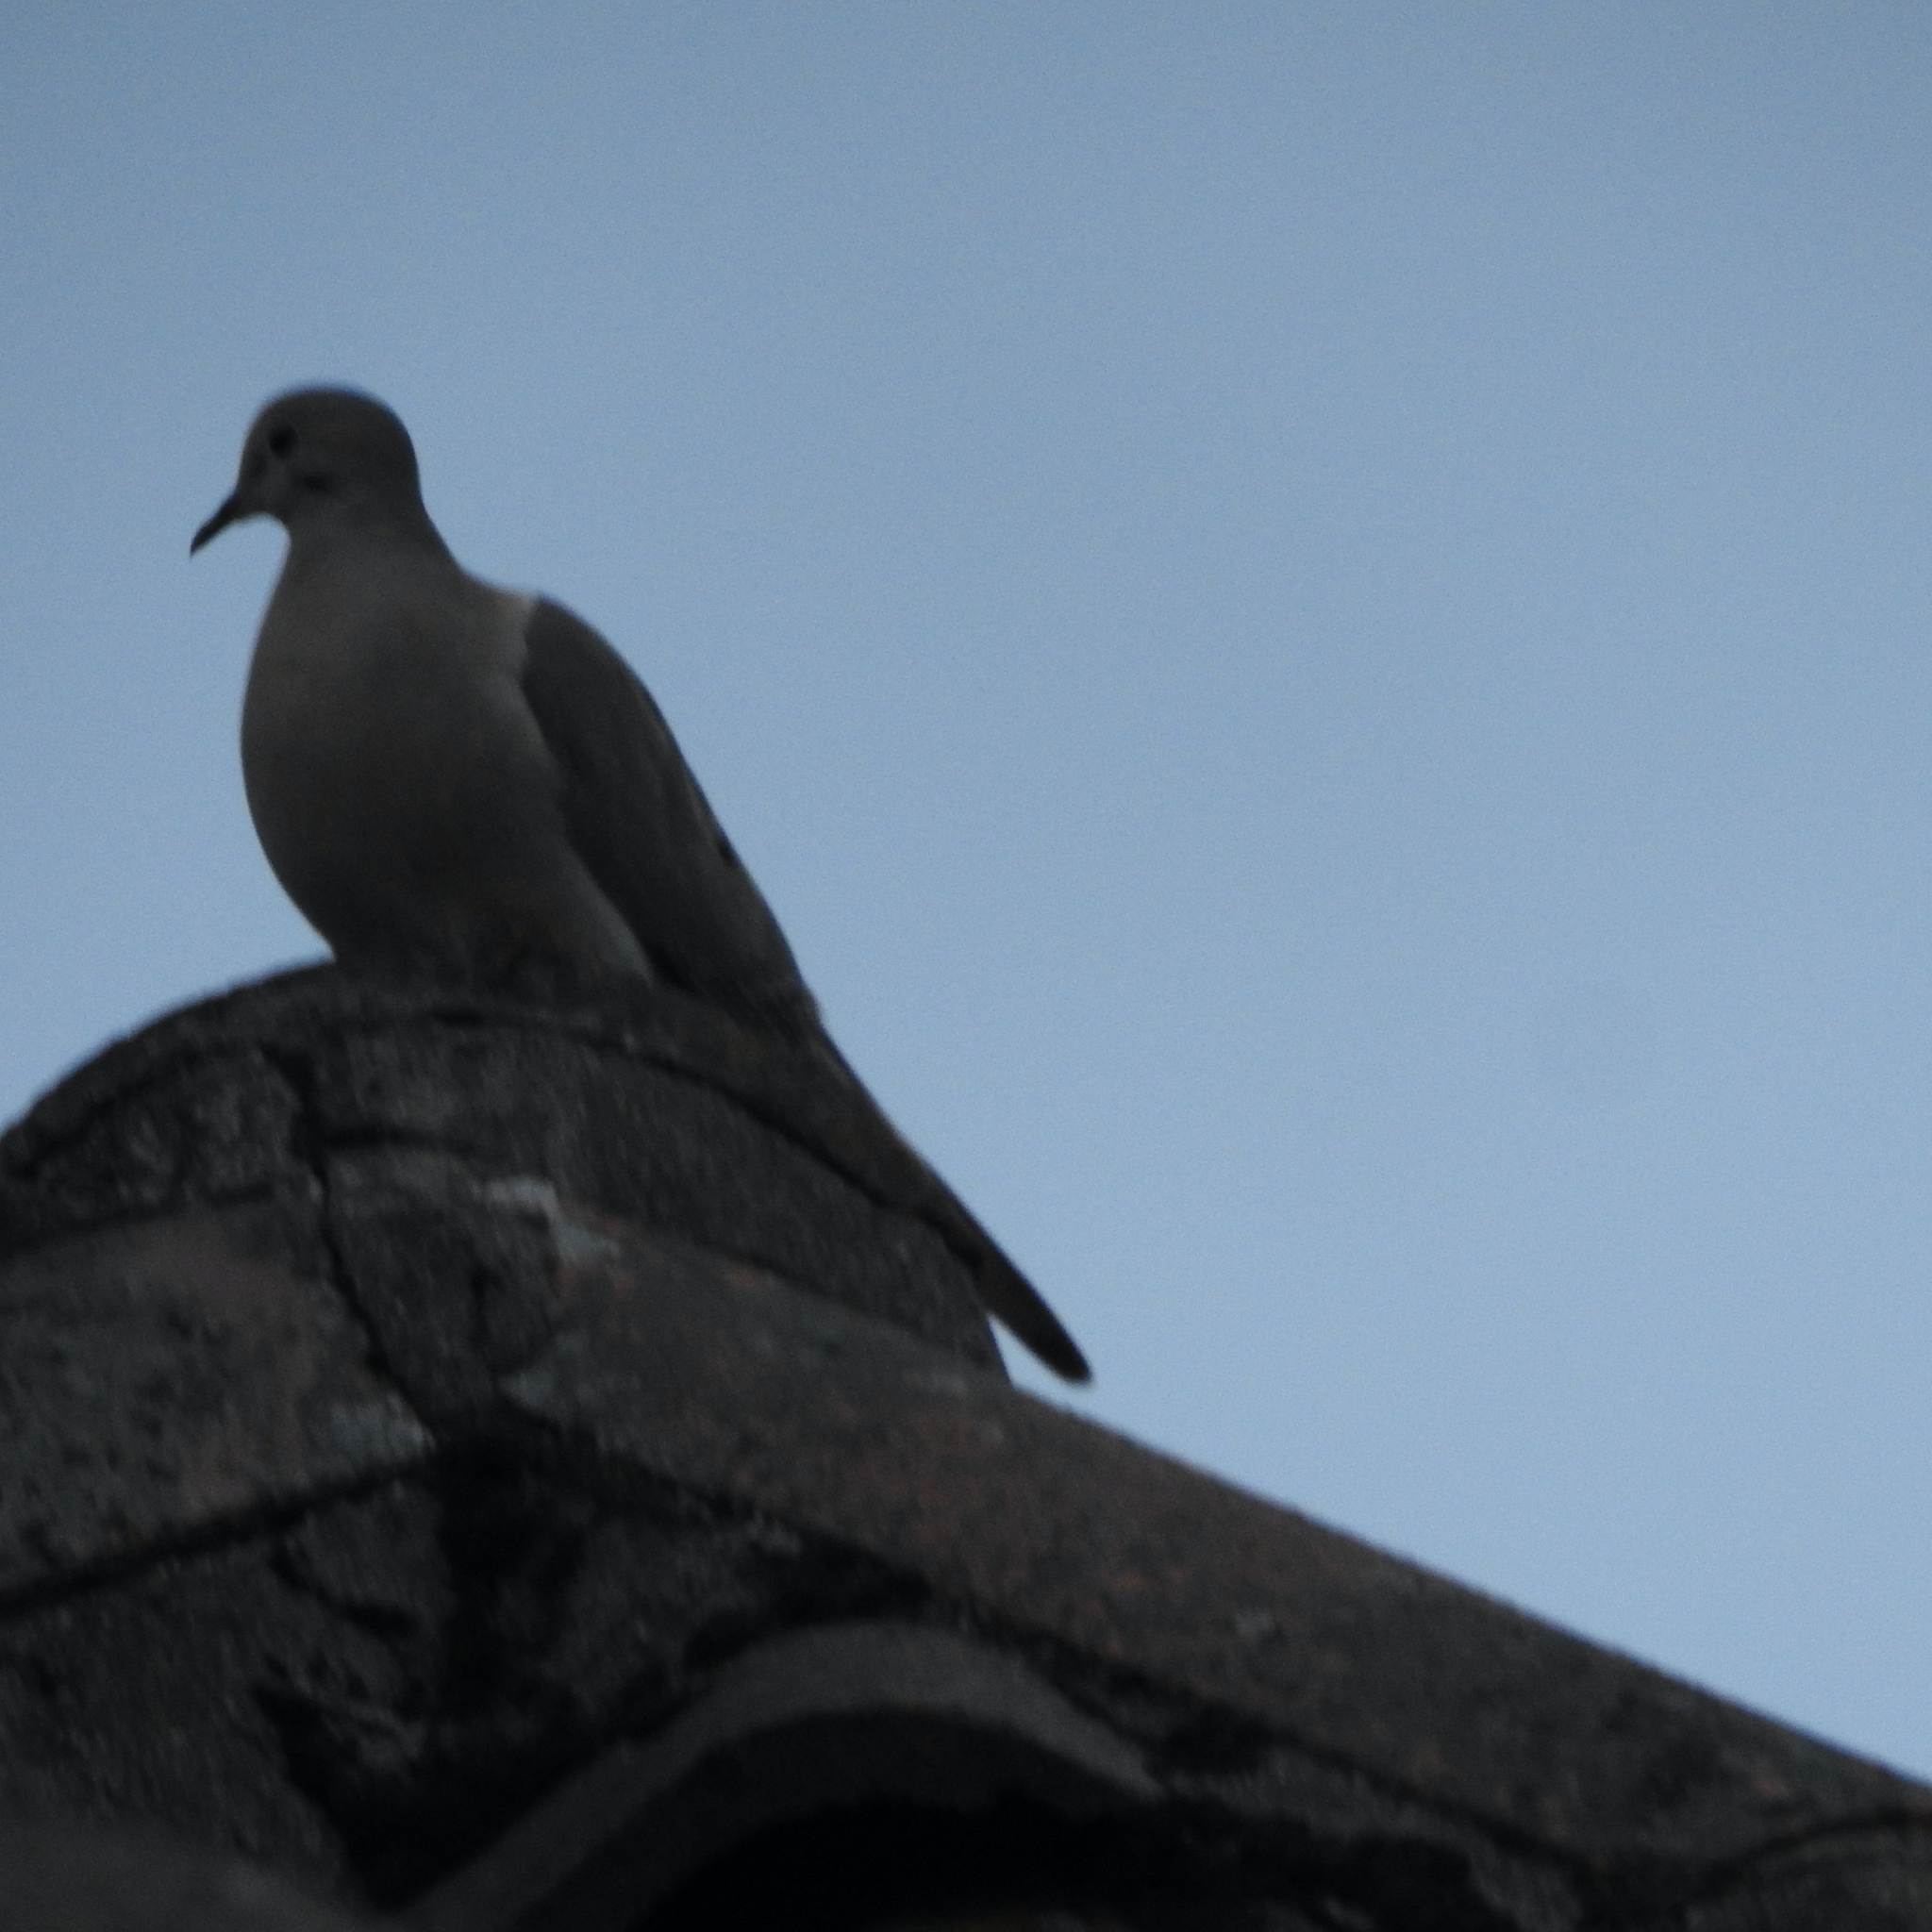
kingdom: Animalia
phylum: Chordata
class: Aves
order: Columbiformes
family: Columbidae
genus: Zenaida
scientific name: Zenaida macroura
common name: Mourning dove
